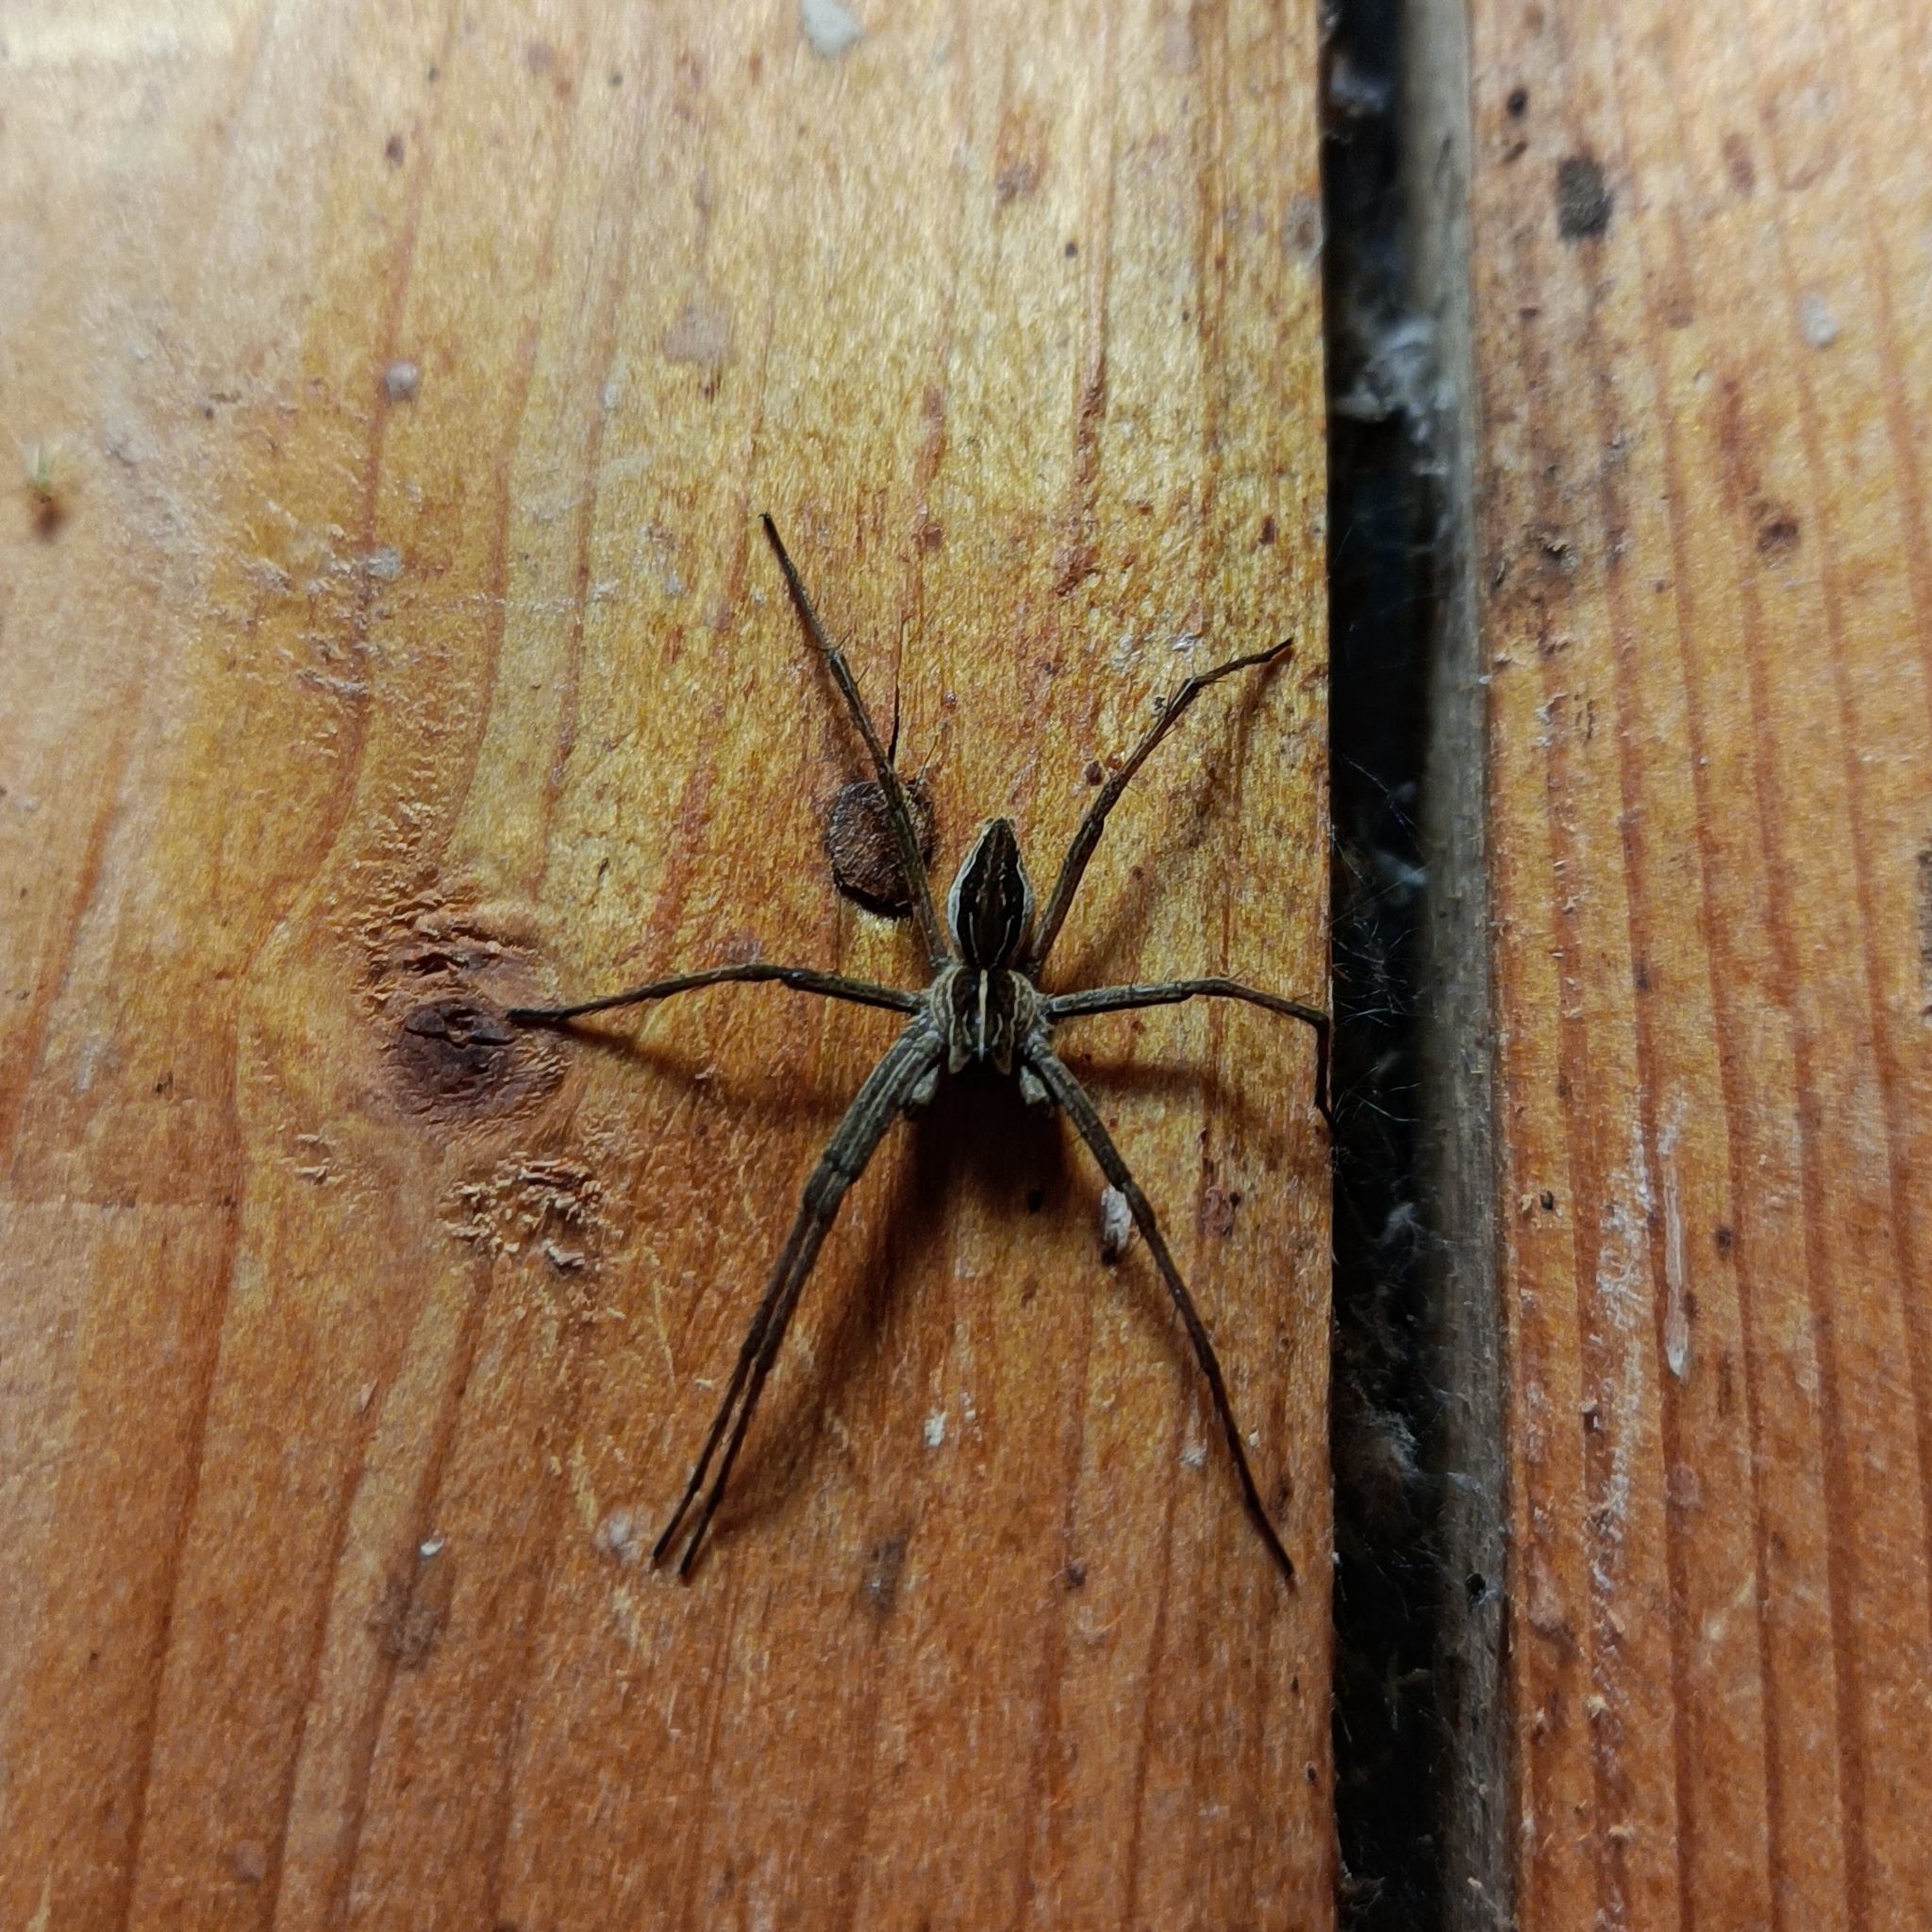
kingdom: Animalia
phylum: Arthropoda
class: Arachnida
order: Araneae
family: Pisauridae
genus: Pisaura
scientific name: Pisaura mirabilis
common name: Tent spider
